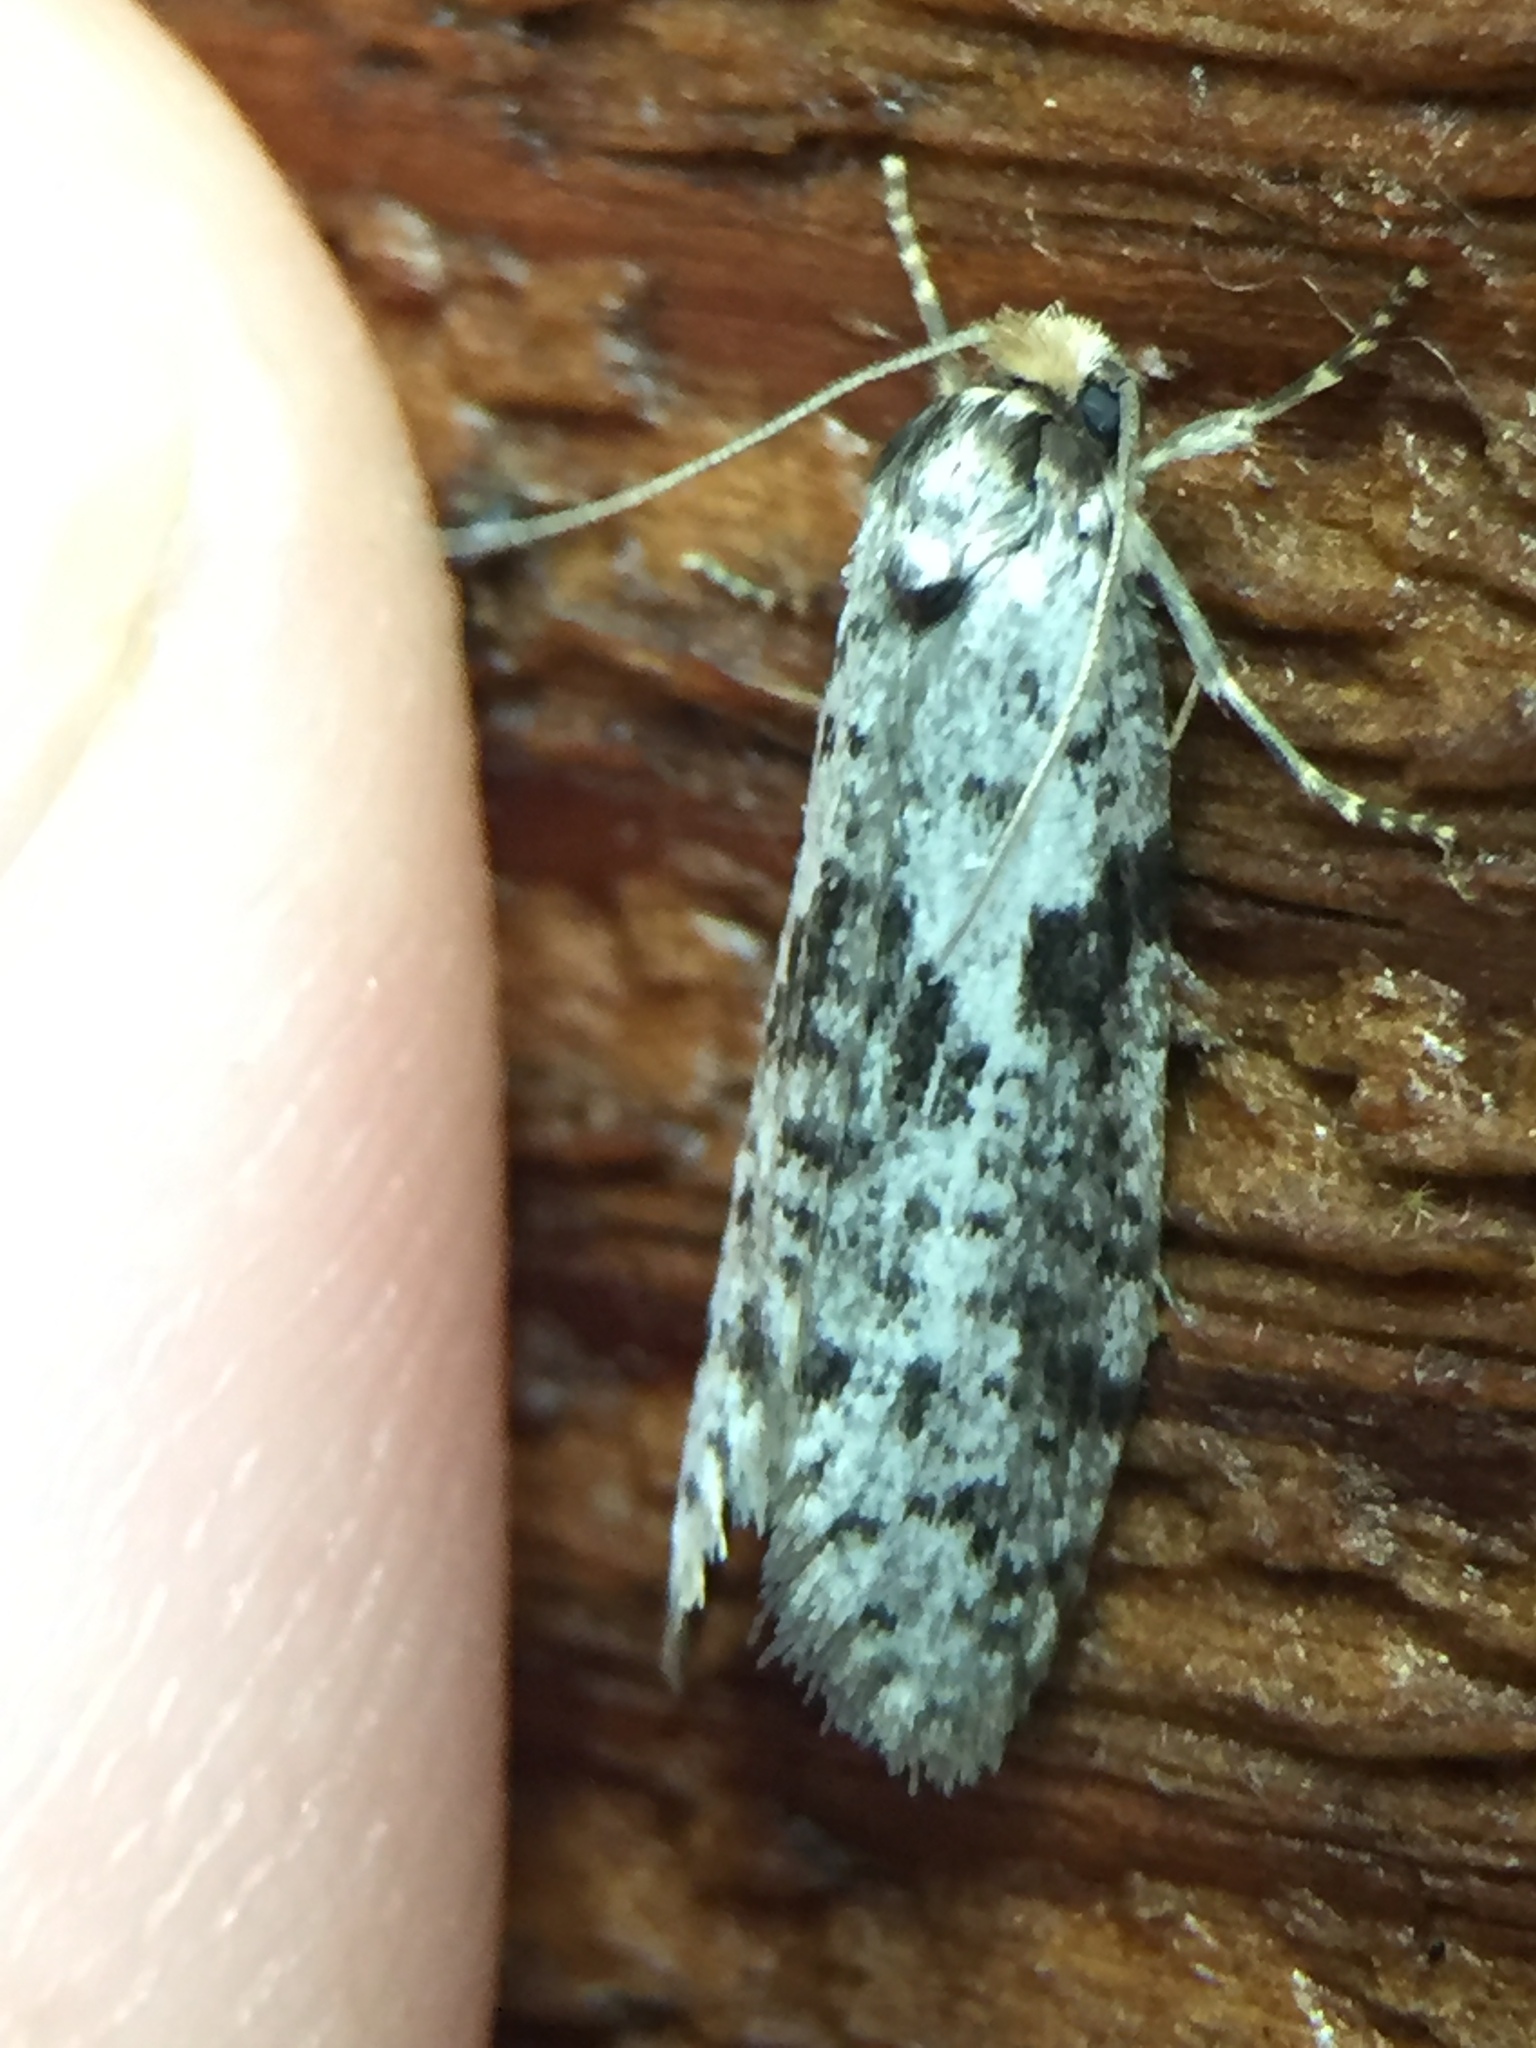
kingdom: Animalia
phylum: Arthropoda
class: Insecta
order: Lepidoptera
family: Psychidae
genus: Lepidoscia
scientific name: Lepidoscia protorna
